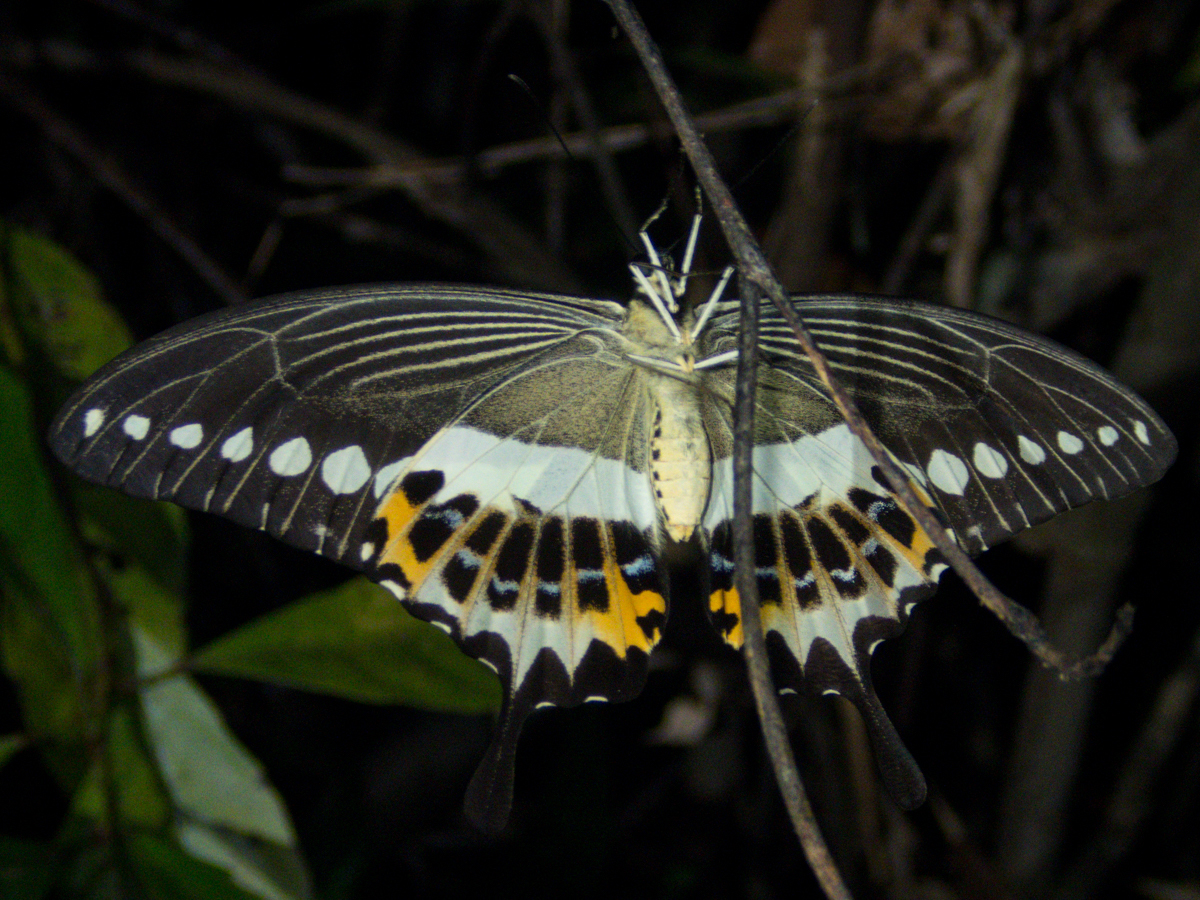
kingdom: Animalia
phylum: Arthropoda
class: Insecta
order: Lepidoptera
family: Papilionidae
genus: Papilio
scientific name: Papilio demolion
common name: Banded swallowtail
